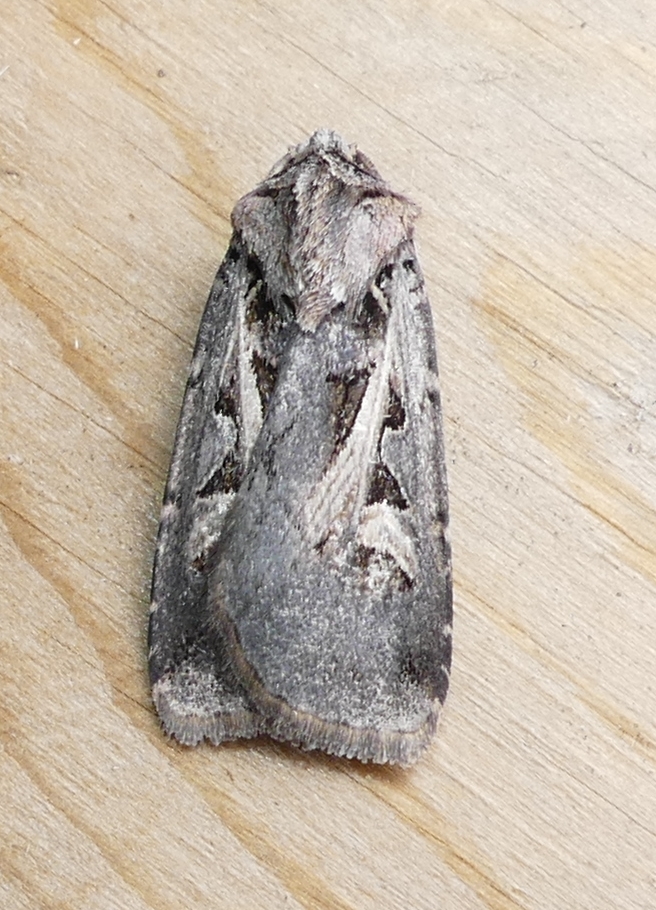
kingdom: Animalia
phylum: Arthropoda
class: Insecta
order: Lepidoptera
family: Noctuidae
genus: Feltia
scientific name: Feltia herilis
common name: Master's dart
